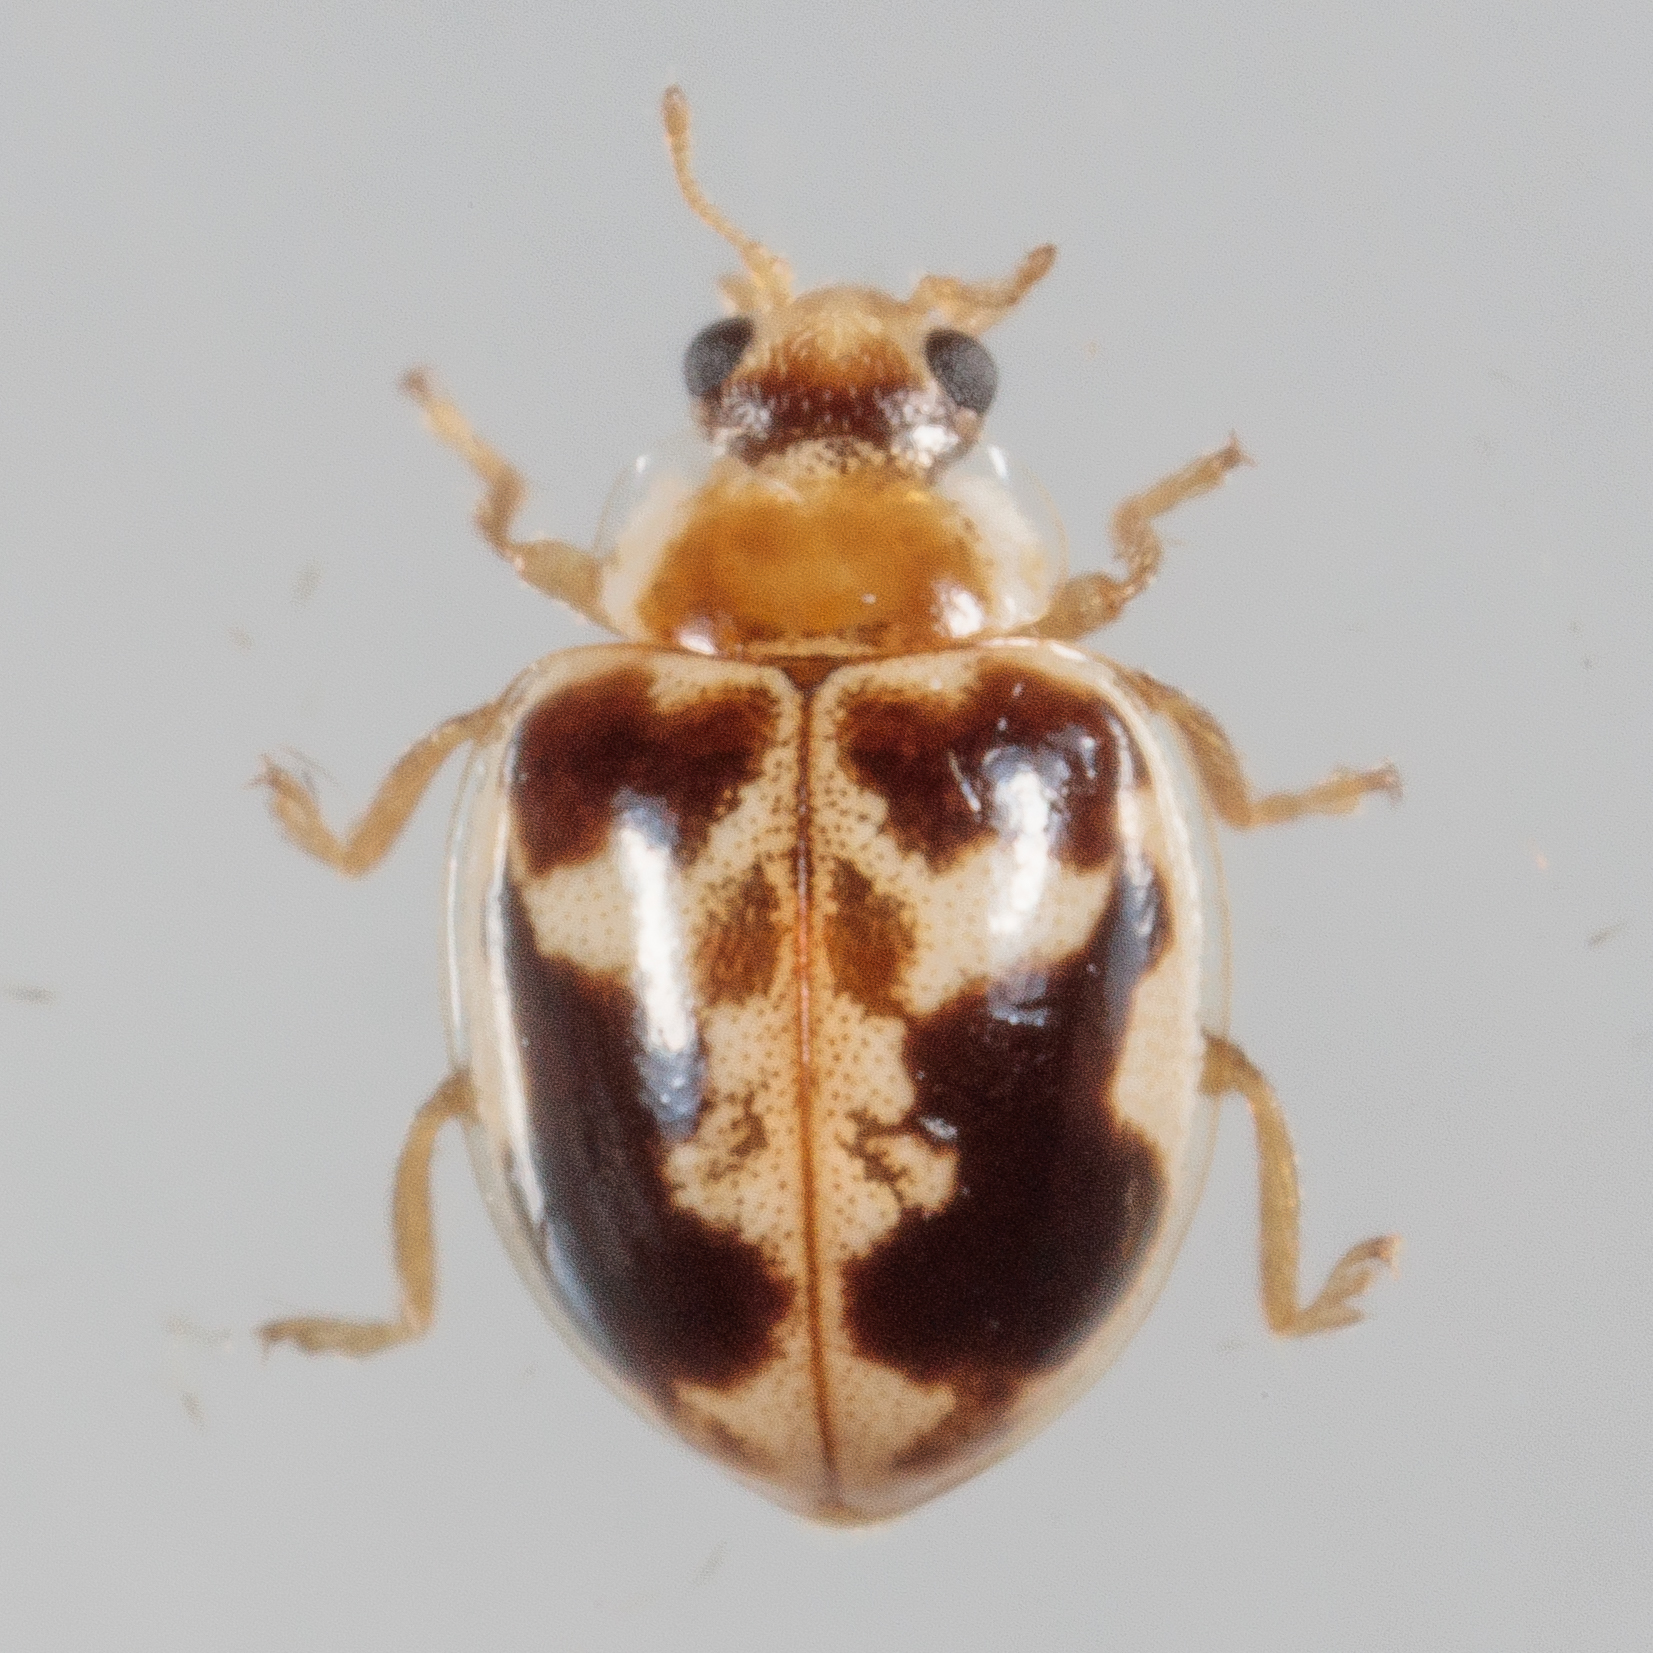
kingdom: Animalia
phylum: Arthropoda
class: Insecta
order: Coleoptera
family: Coccinellidae
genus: Psyllobora
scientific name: Psyllobora renifer
